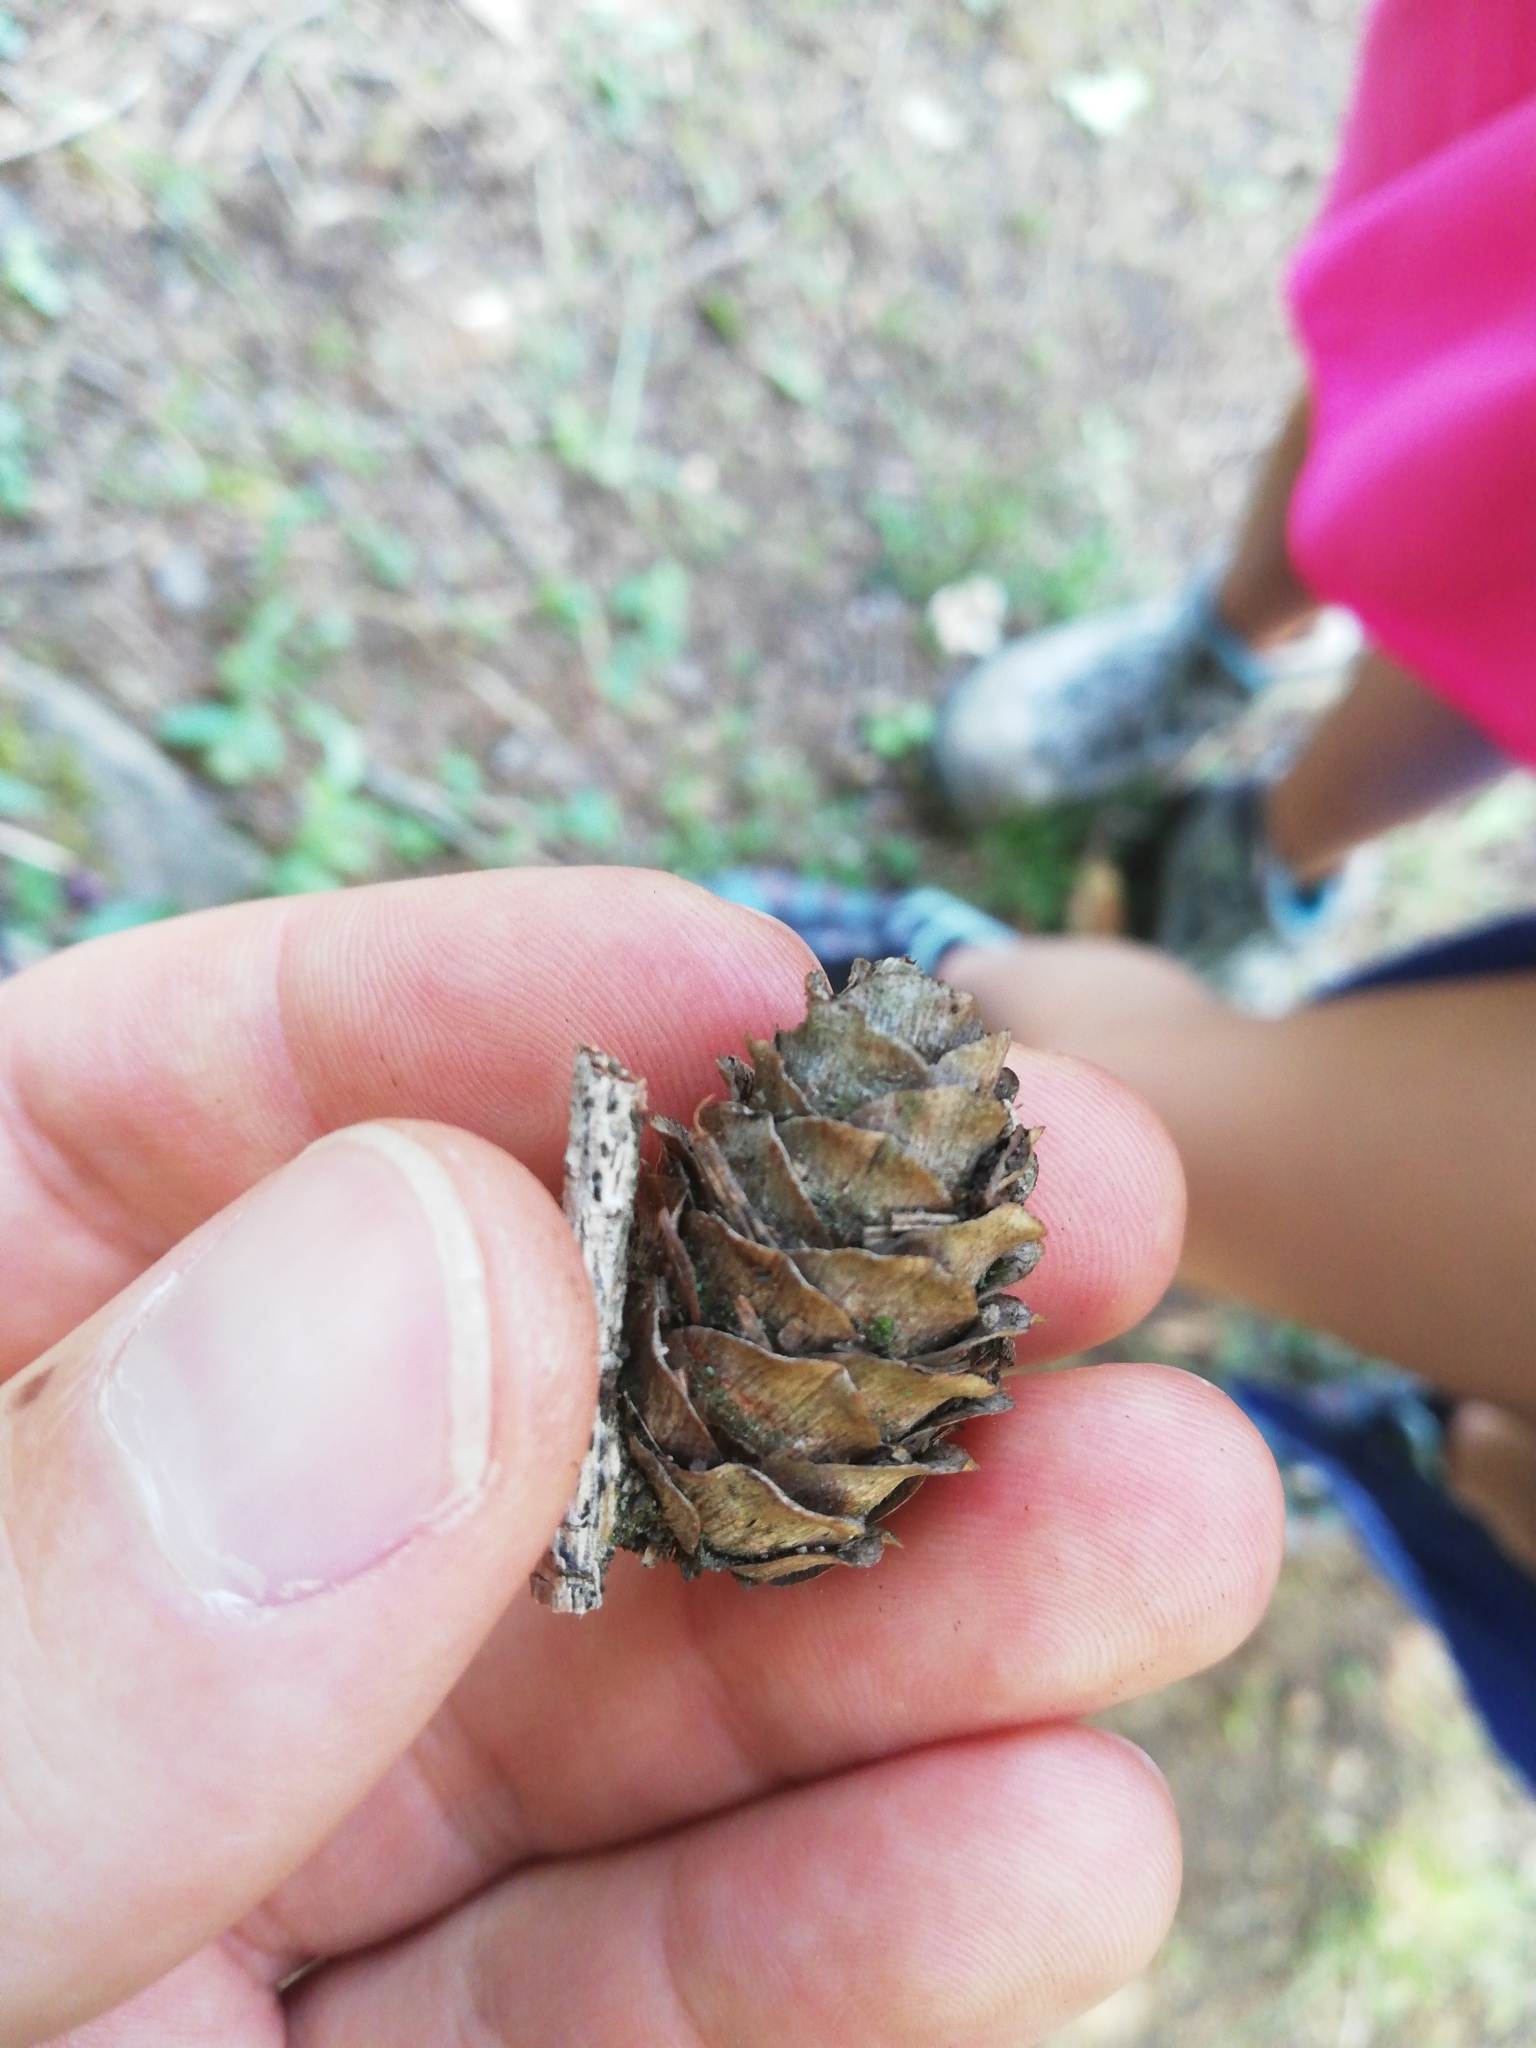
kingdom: Plantae
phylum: Tracheophyta
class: Pinopsida
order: Pinales
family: Pinaceae
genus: Larix
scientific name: Larix decidua
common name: European larch
